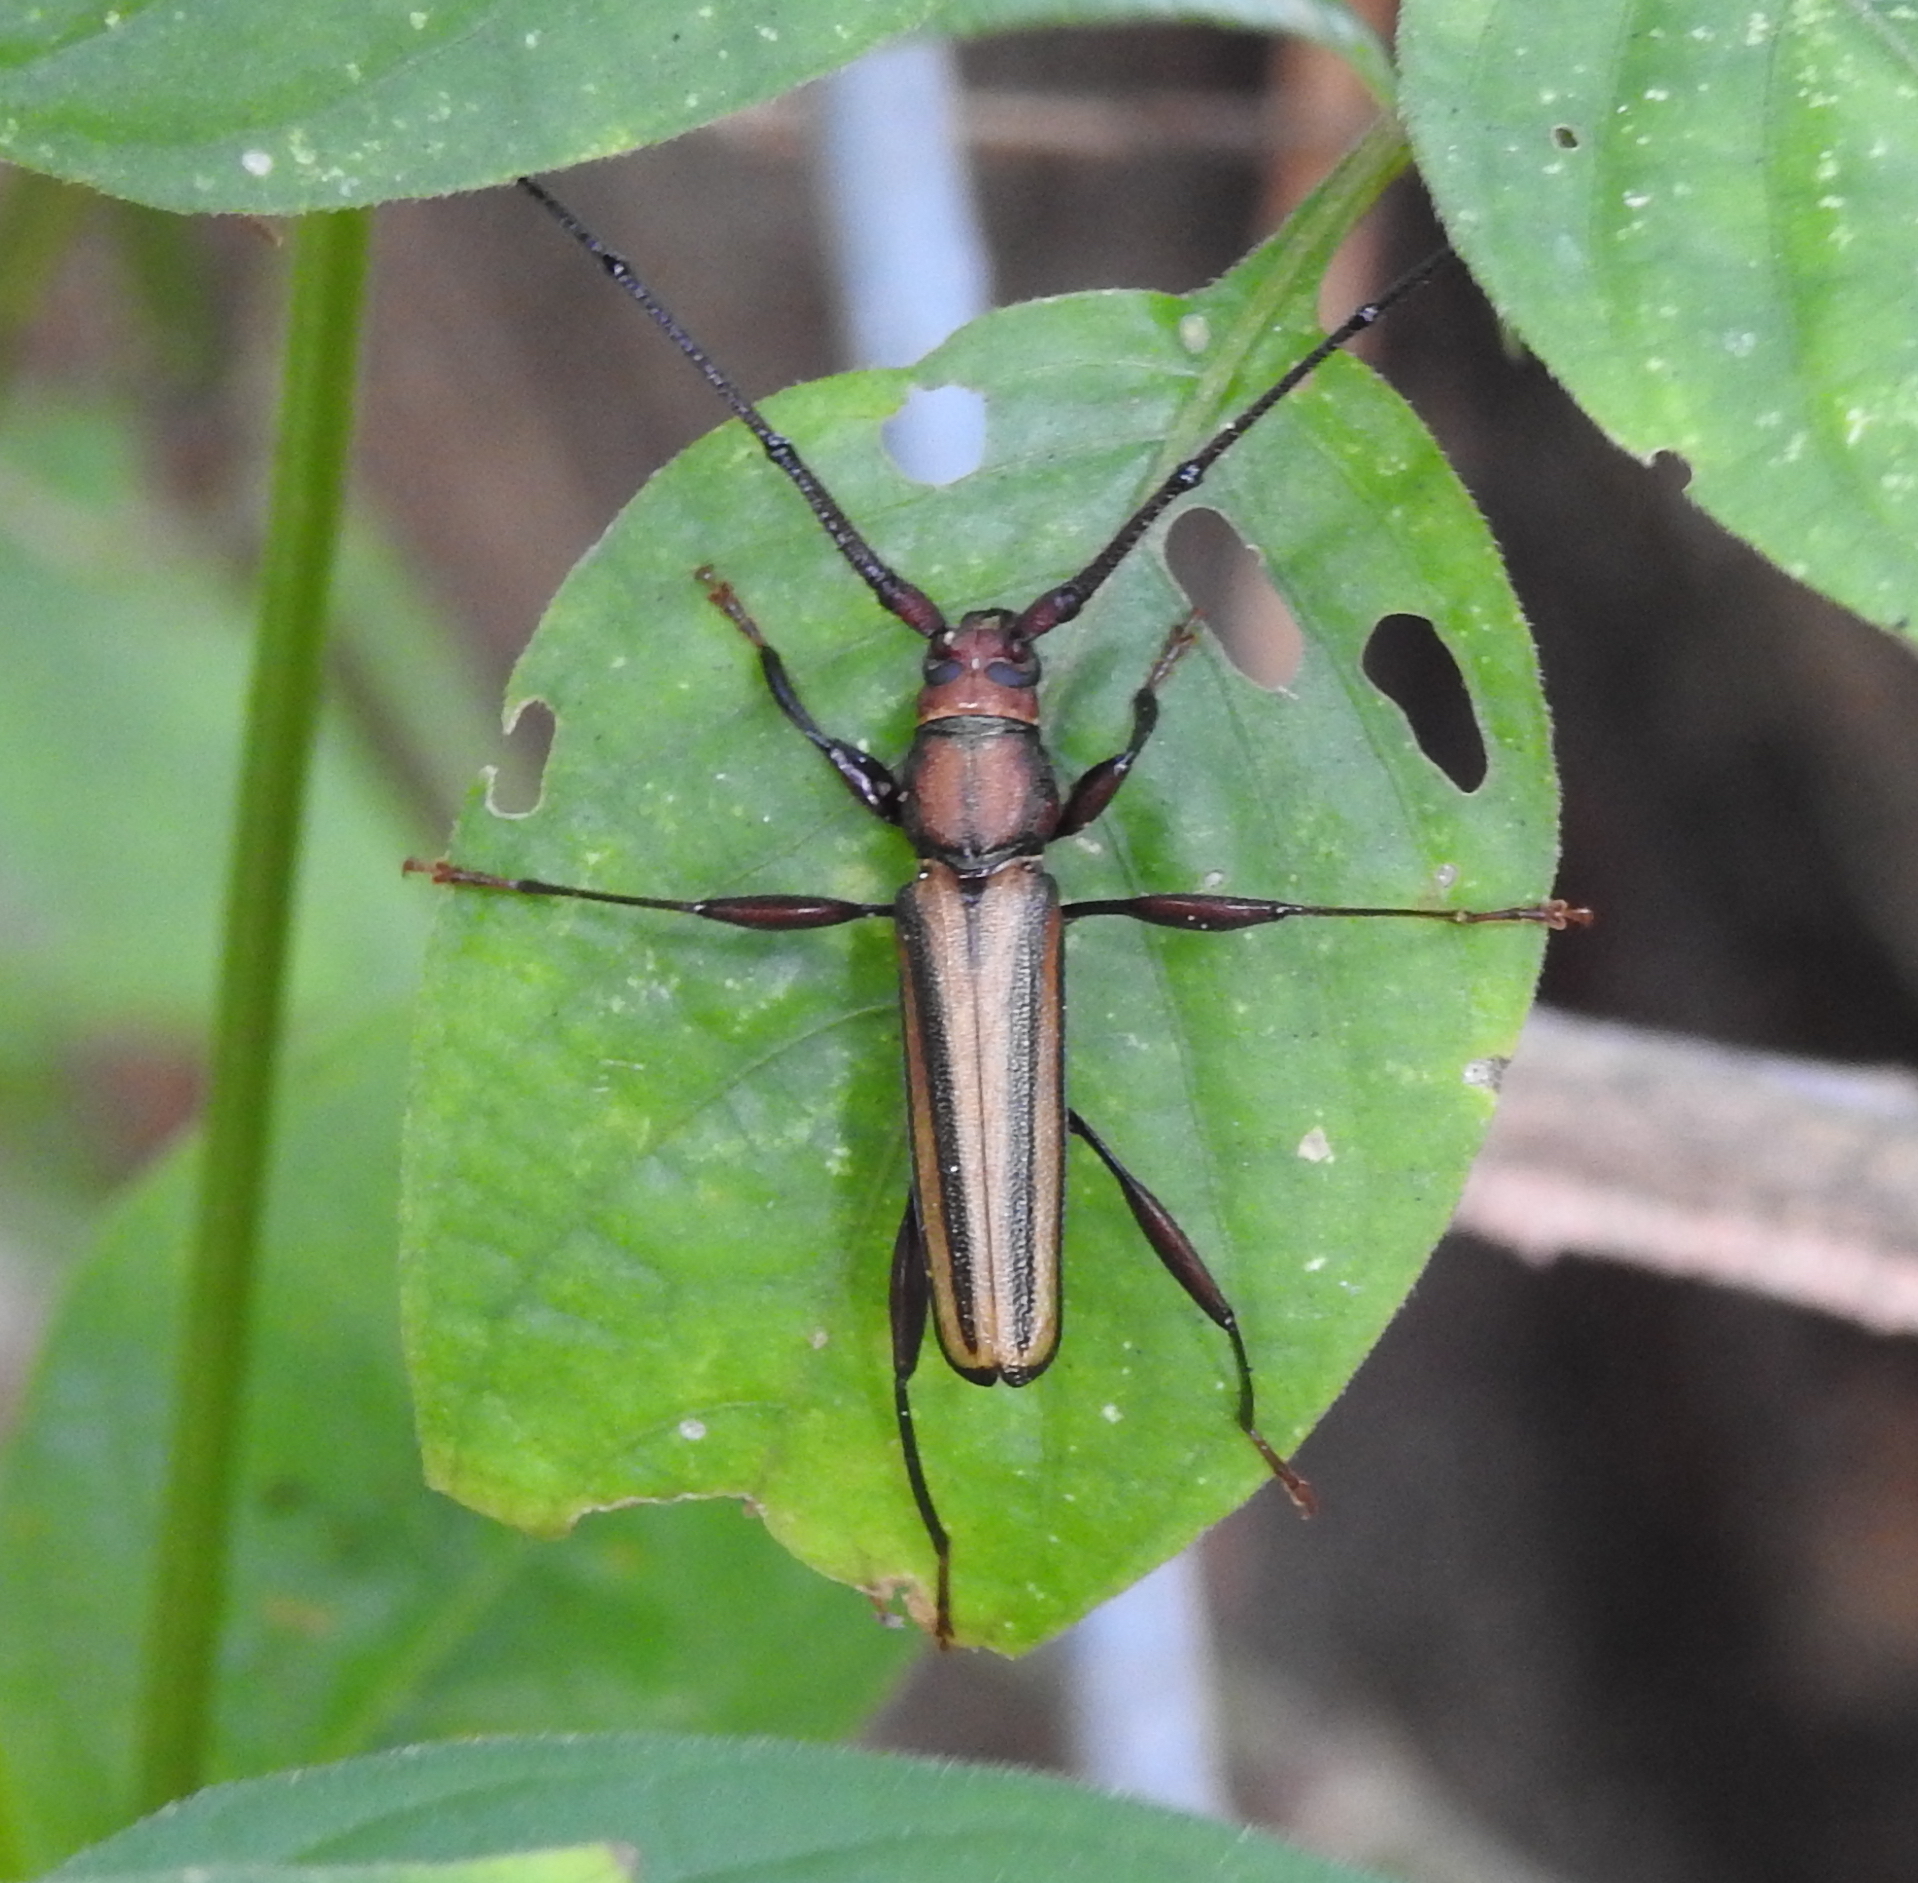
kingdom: Animalia
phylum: Arthropoda
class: Insecta
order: Coleoptera
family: Cerambycidae
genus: Xystrocera
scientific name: Xystrocera globosa
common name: Peach-tree longhorn
